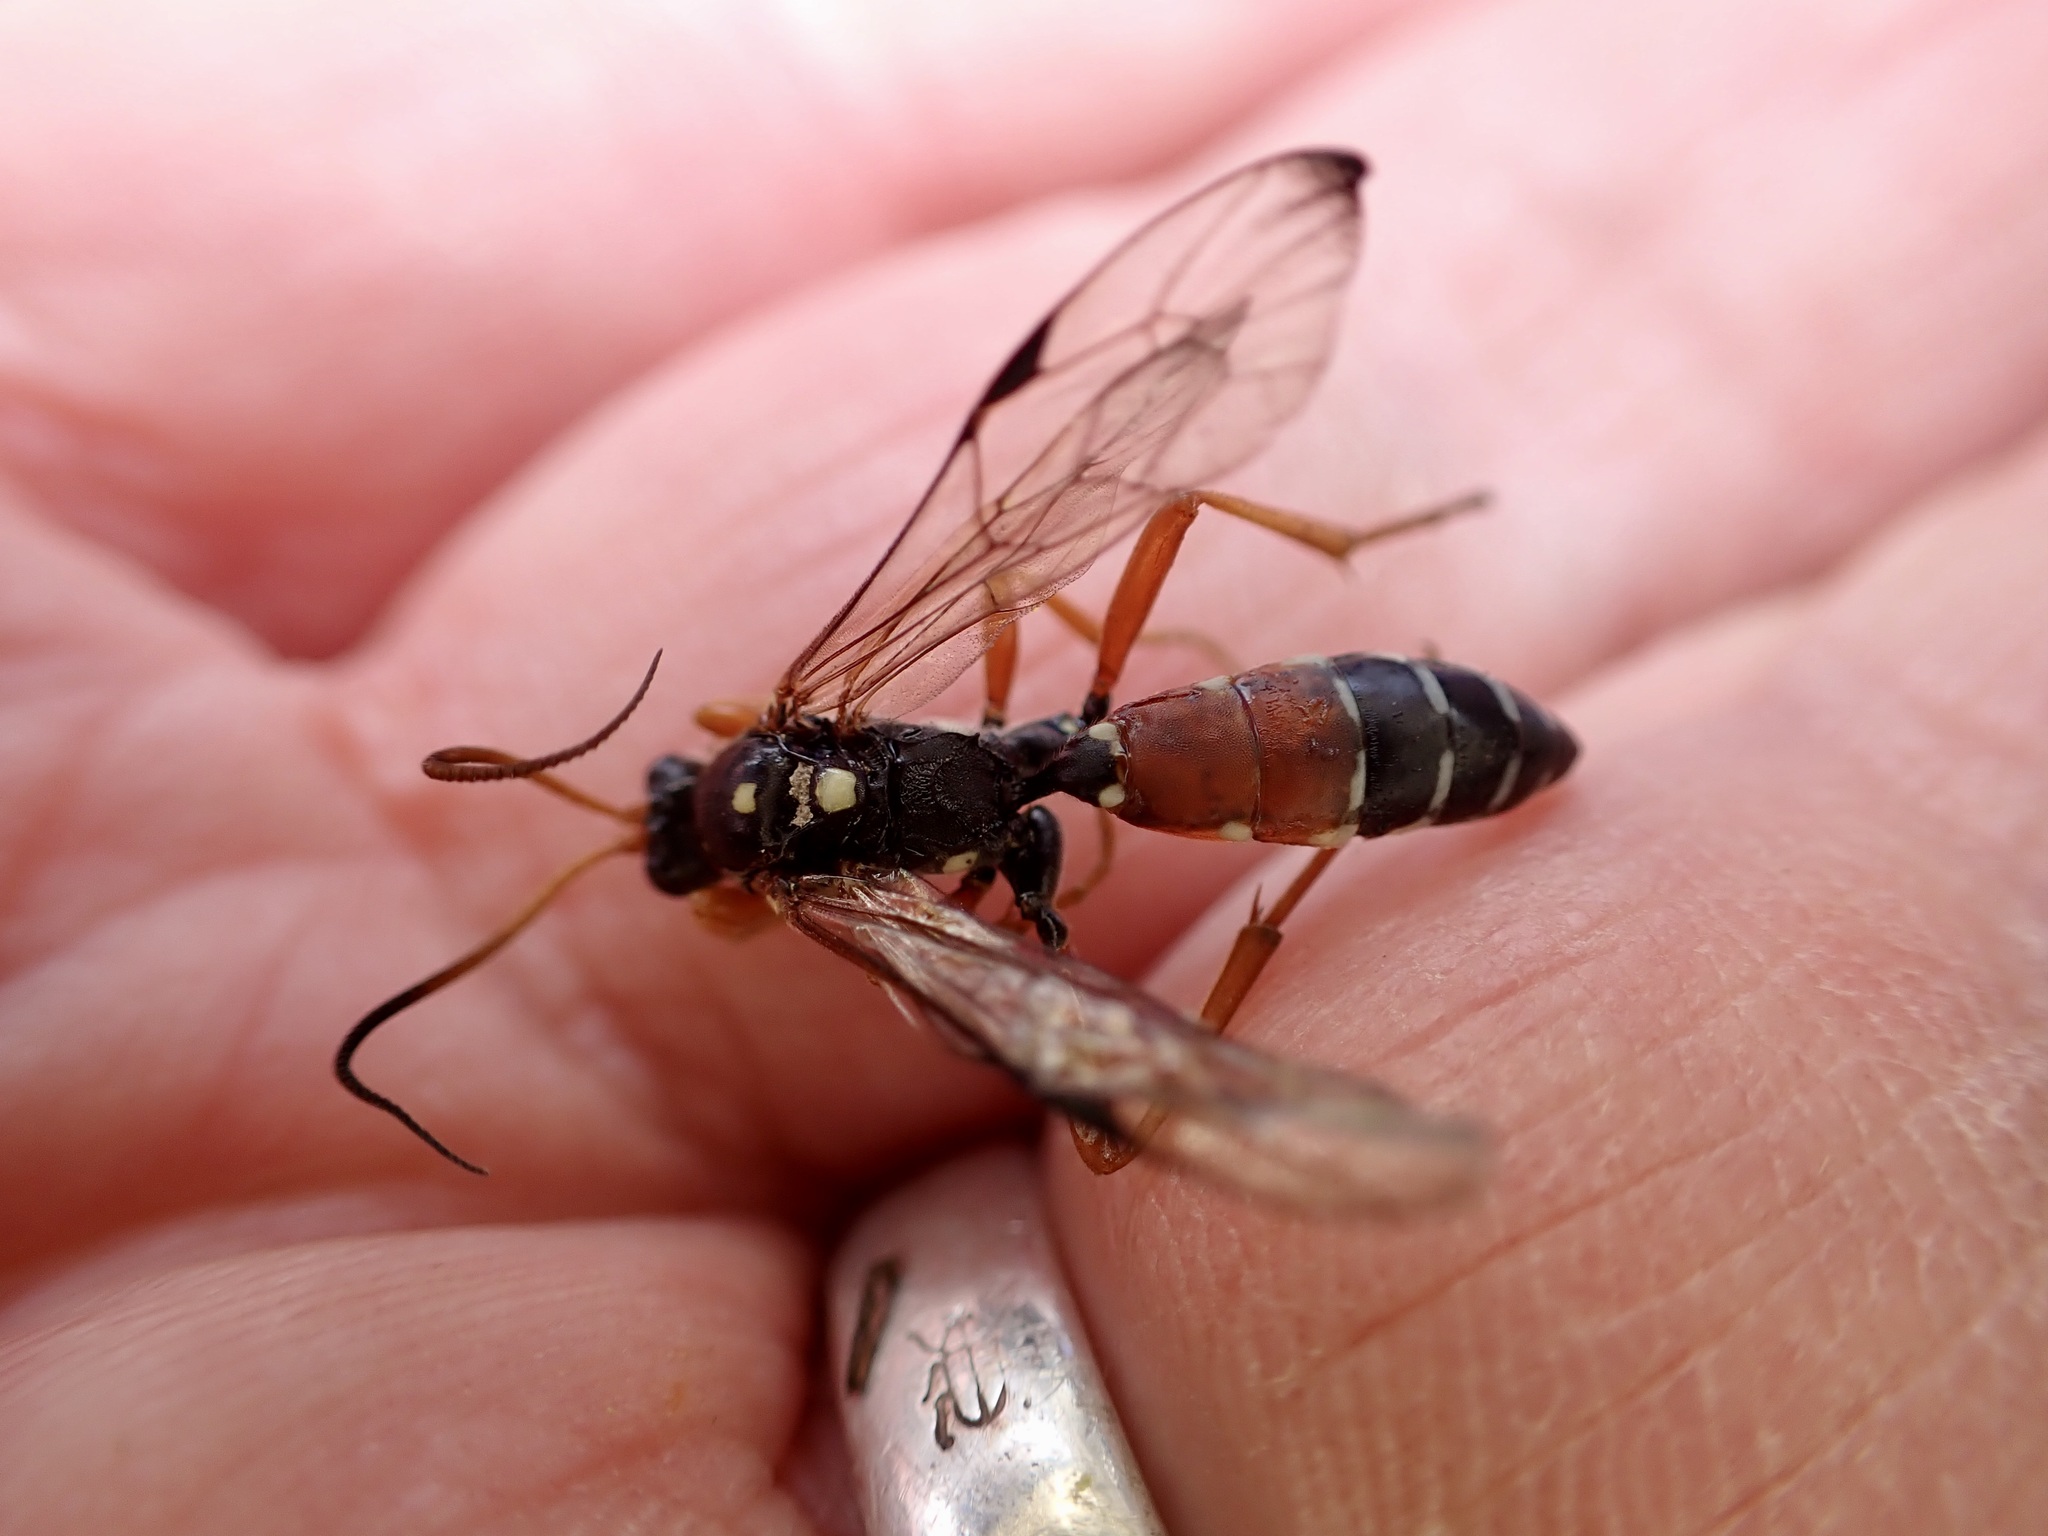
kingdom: Animalia
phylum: Arthropoda
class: Insecta
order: Hymenoptera
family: Ichneumonidae
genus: Eutanyacra
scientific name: Eutanyacra licitatoria
